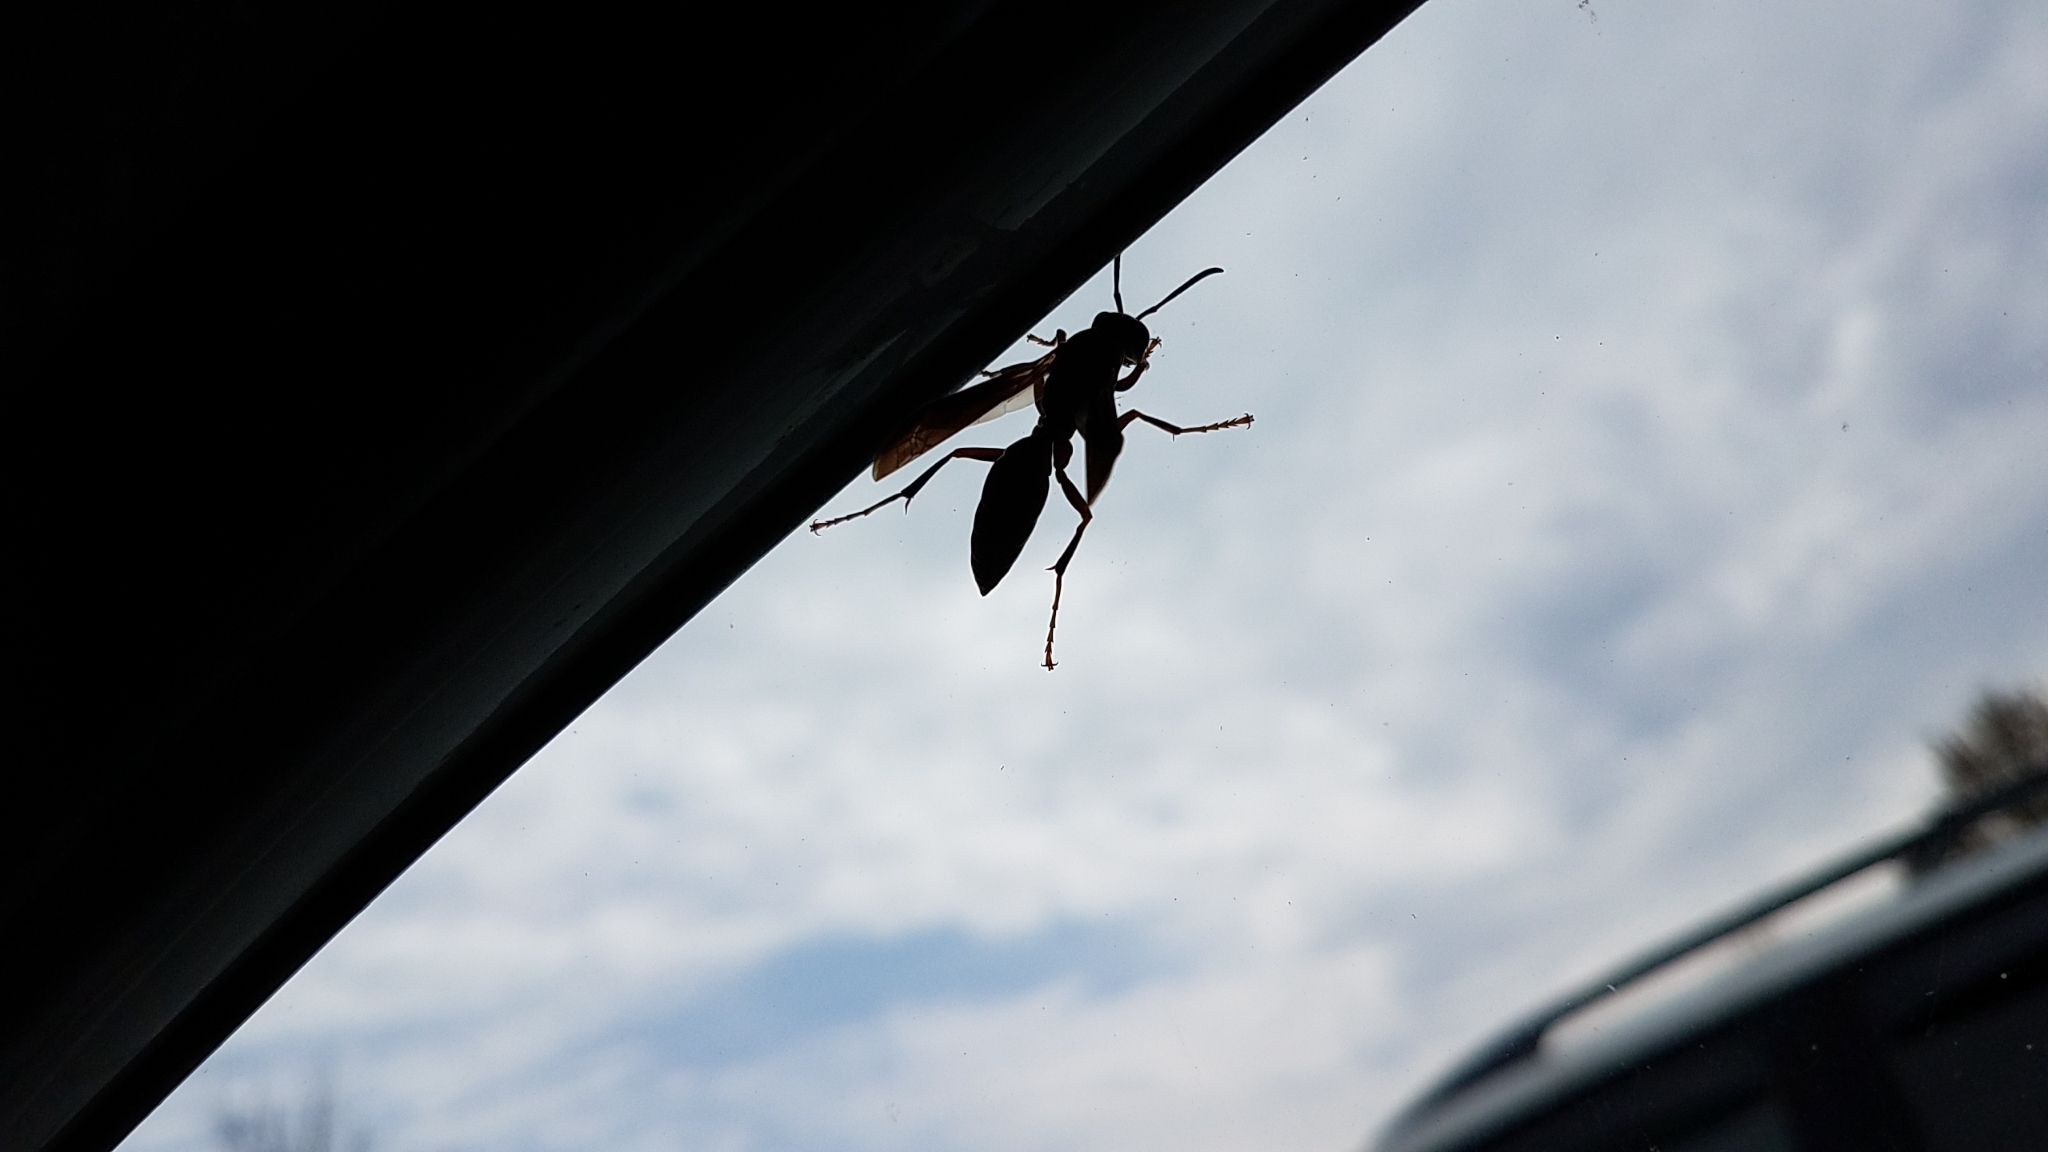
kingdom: Animalia
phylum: Arthropoda
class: Insecta
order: Hymenoptera
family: Eumenidae
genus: Polistes
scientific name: Polistes
